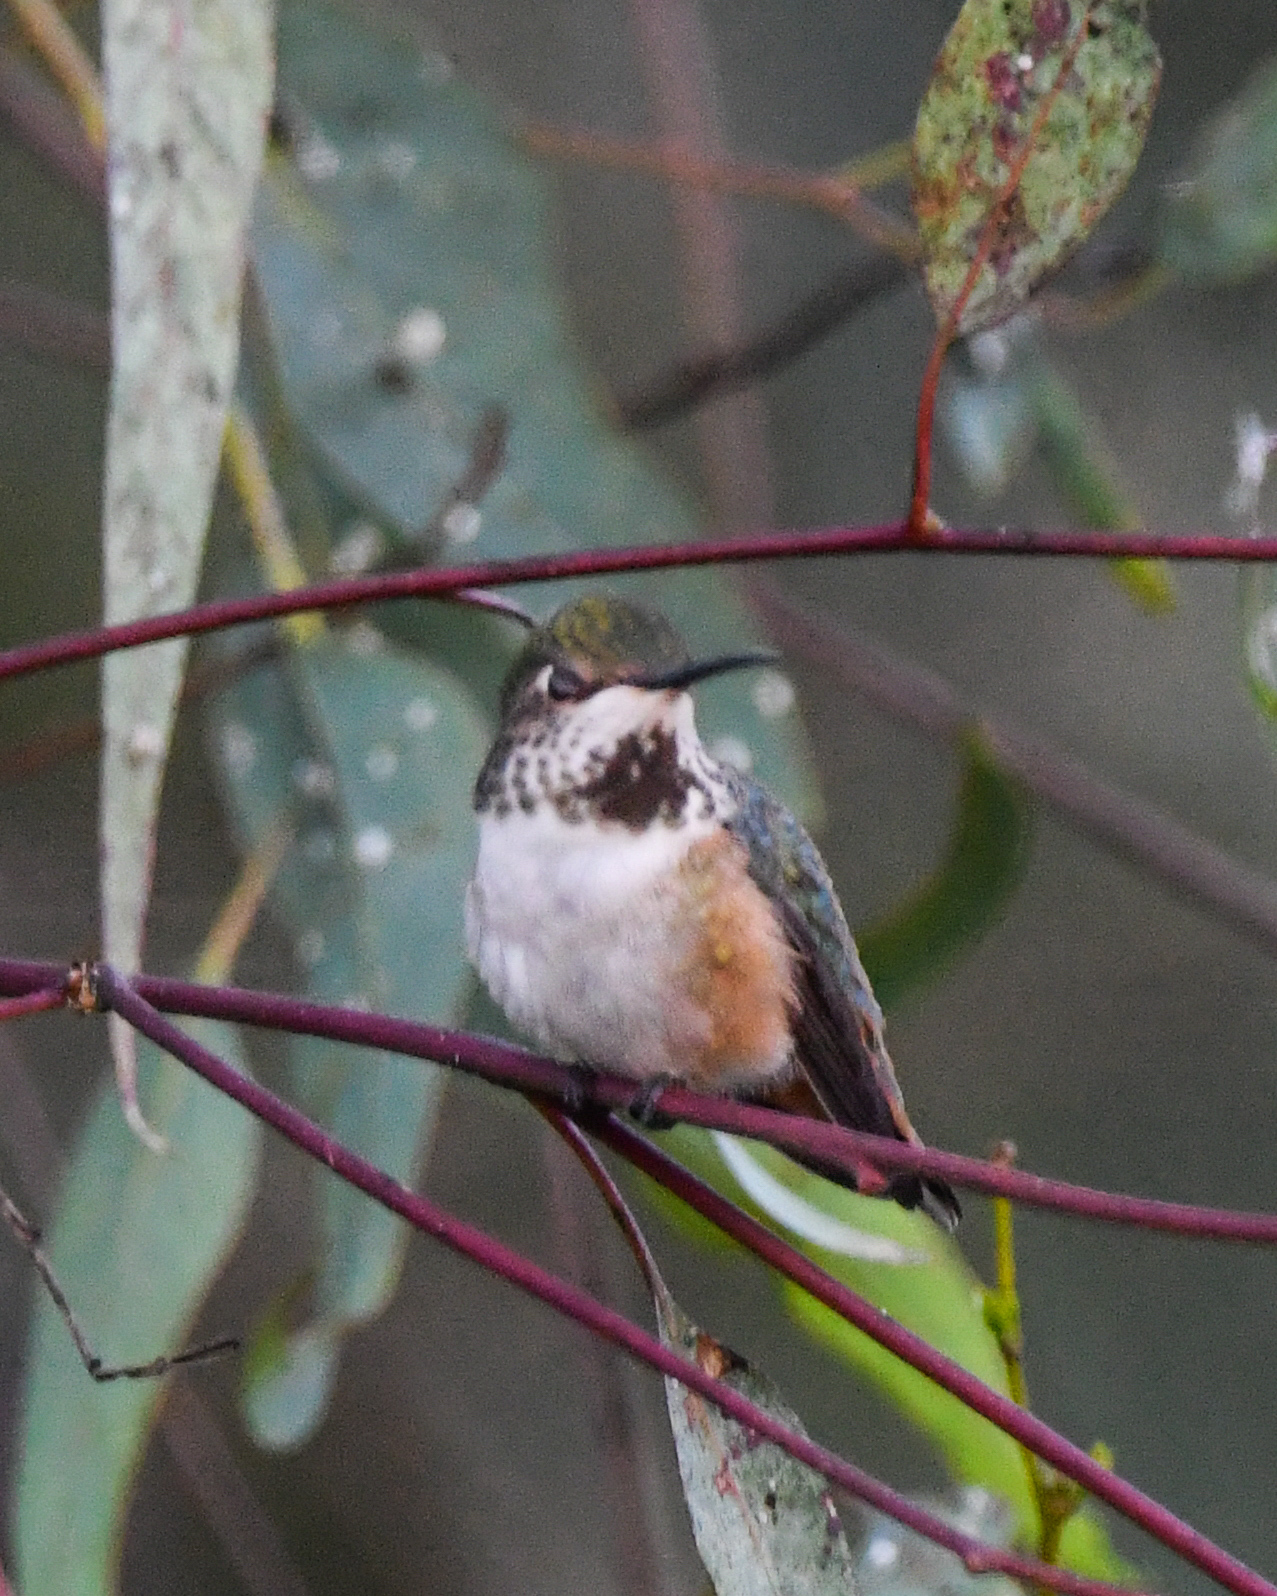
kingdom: Animalia
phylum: Chordata
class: Aves
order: Apodiformes
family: Trochilidae
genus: Selasphorus
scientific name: Selasphorus sasin
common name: Allen's hummingbird
